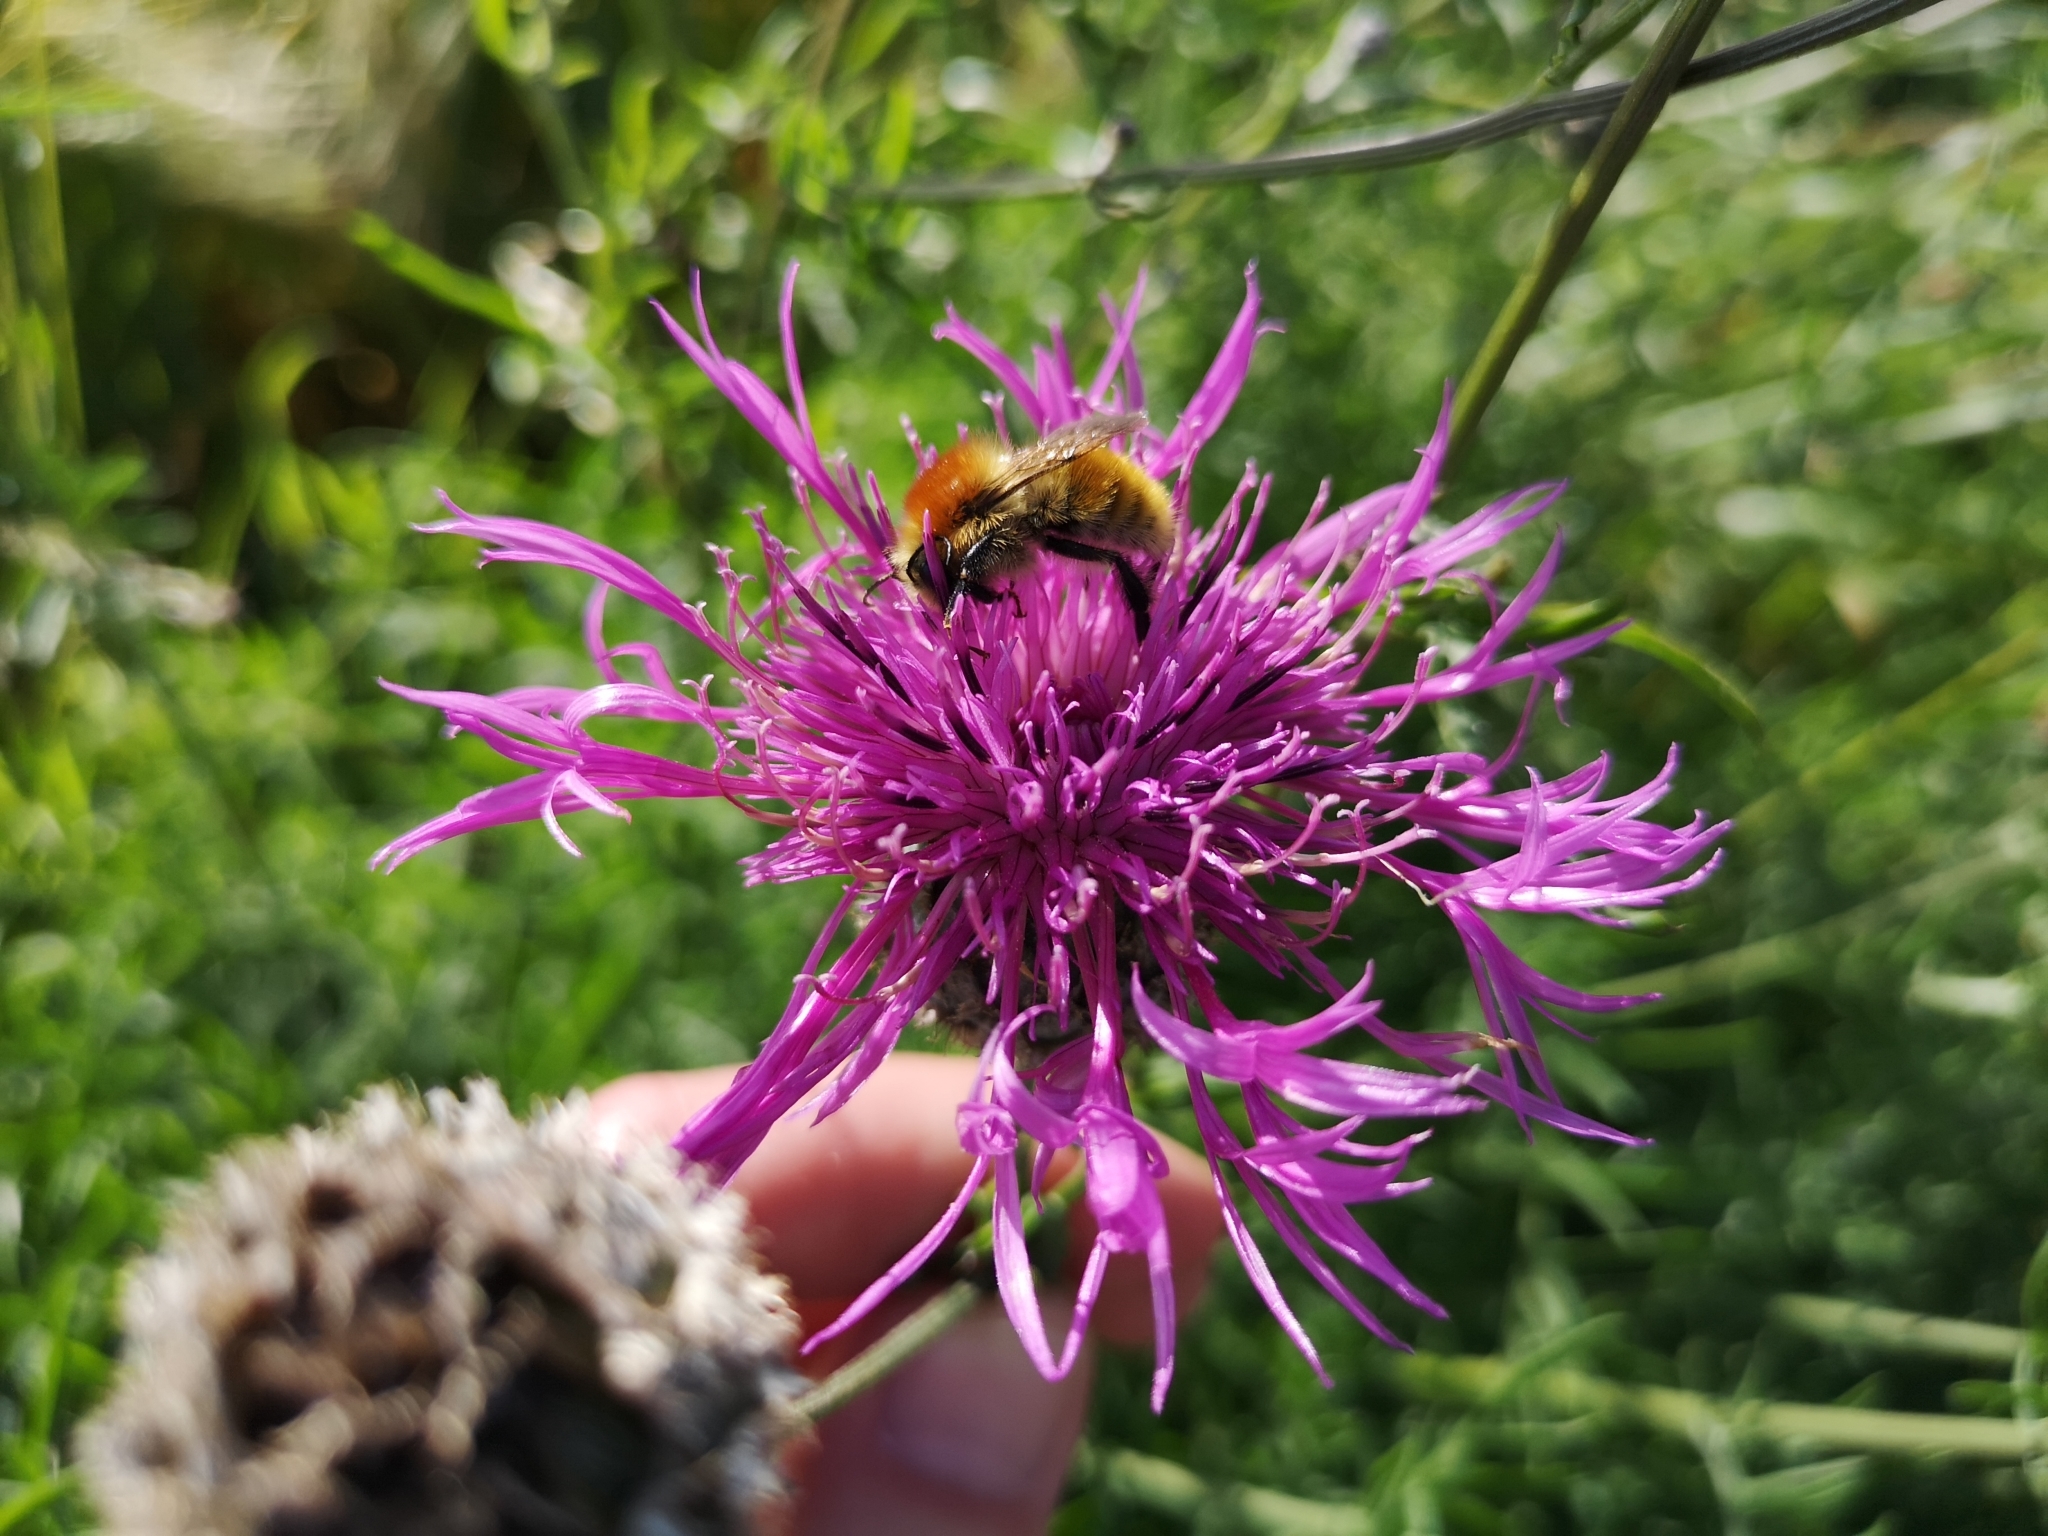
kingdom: Plantae
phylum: Tracheophyta
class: Magnoliopsida
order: Asterales
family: Asteraceae
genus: Centaurea
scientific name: Centaurea scabiosa
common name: Greater knapweed
